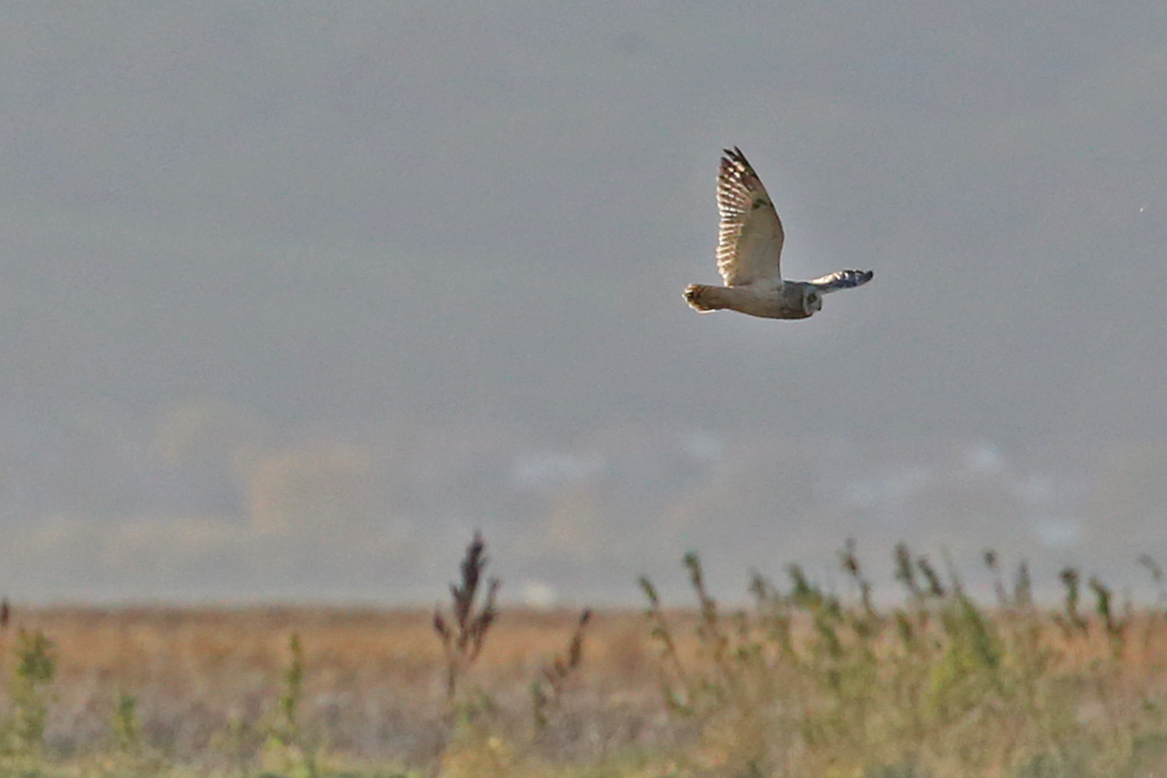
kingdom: Animalia
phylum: Chordata
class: Aves
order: Strigiformes
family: Strigidae
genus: Asio
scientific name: Asio flammeus
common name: Short-eared owl
